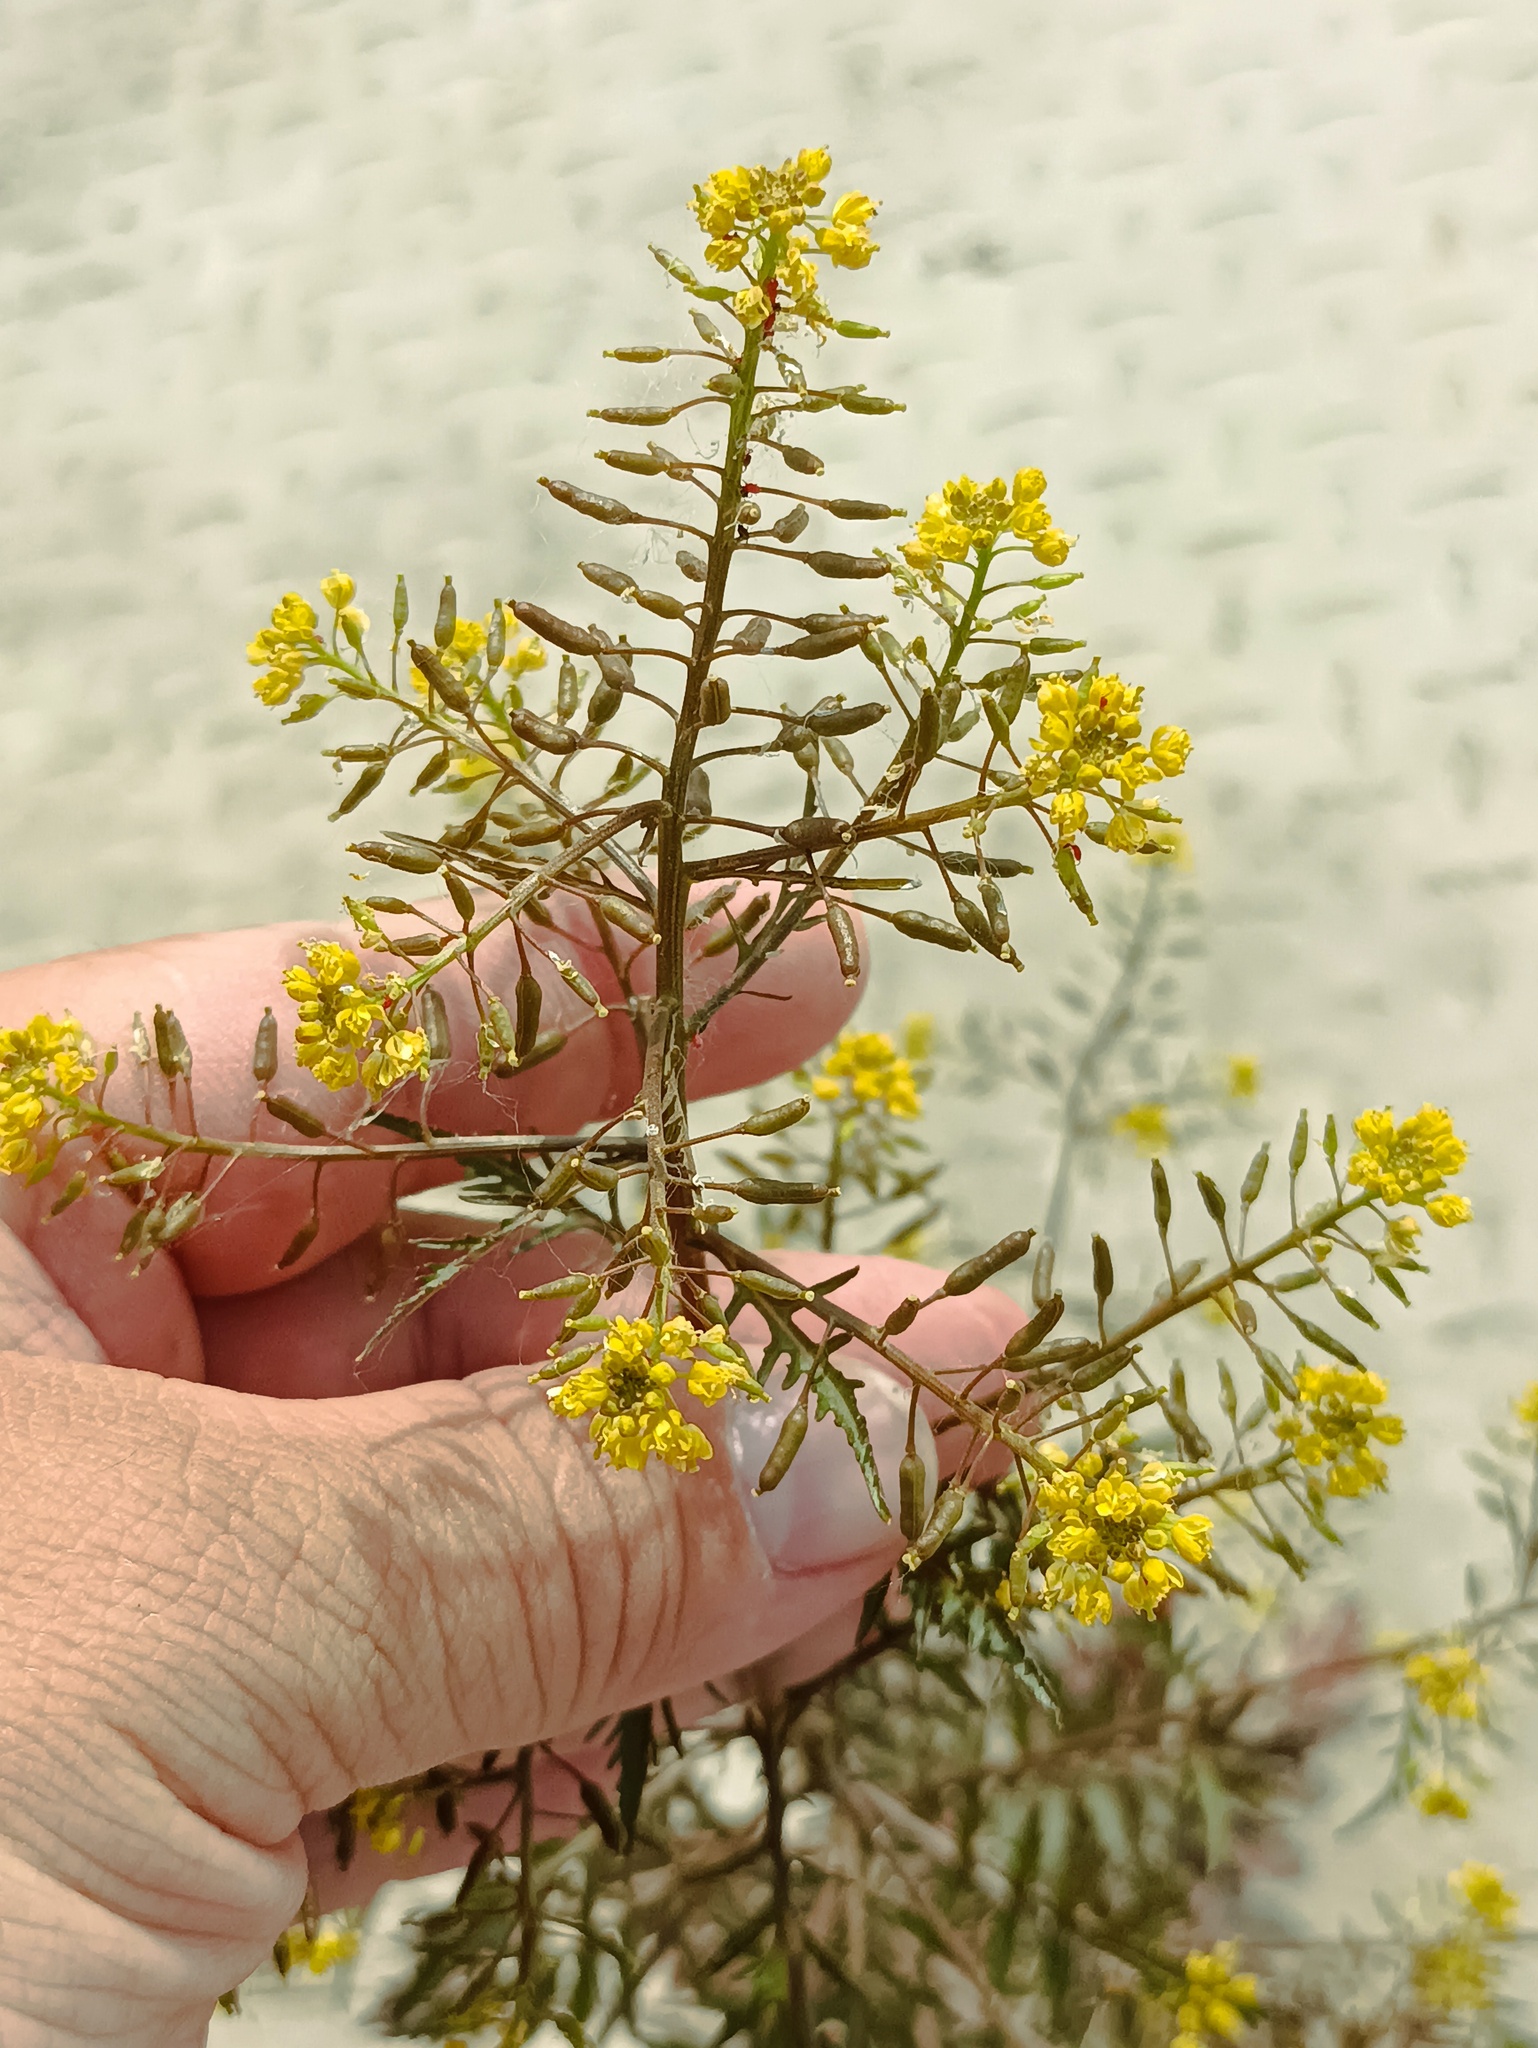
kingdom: Plantae
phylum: Tracheophyta
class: Magnoliopsida
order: Brassicales
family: Brassicaceae
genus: Rorippa
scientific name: Rorippa palustris
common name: Marsh yellow-cress
